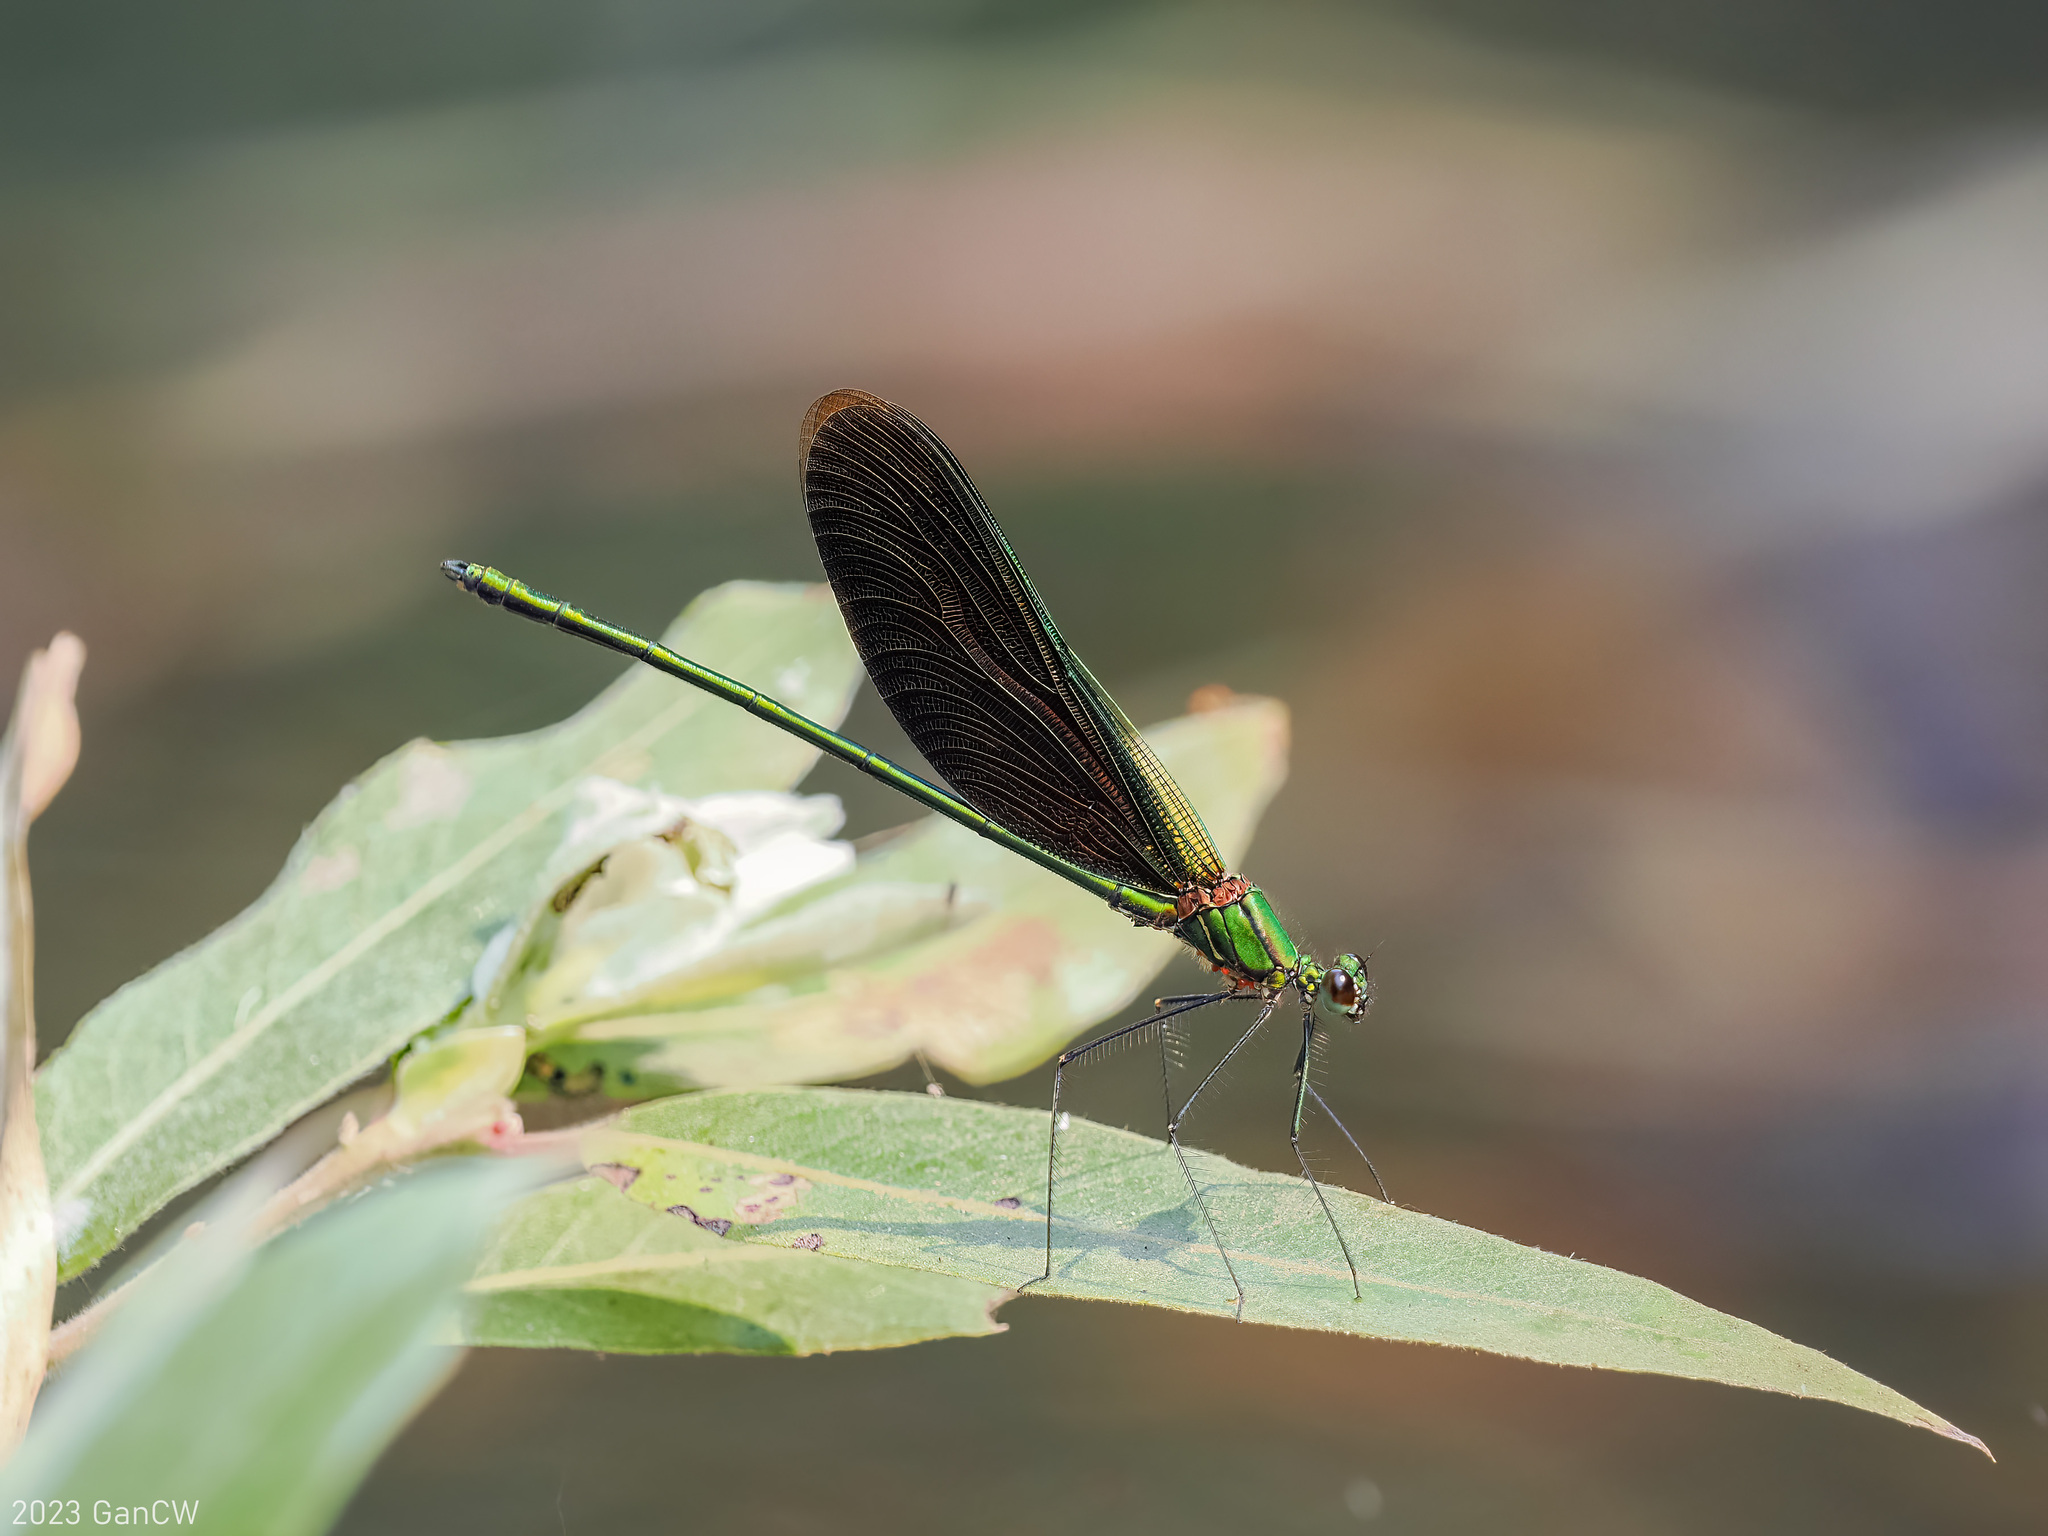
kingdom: Animalia
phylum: Arthropoda
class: Insecta
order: Odonata
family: Calopterygidae
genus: Neurobasis
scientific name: Neurobasis chinensis
